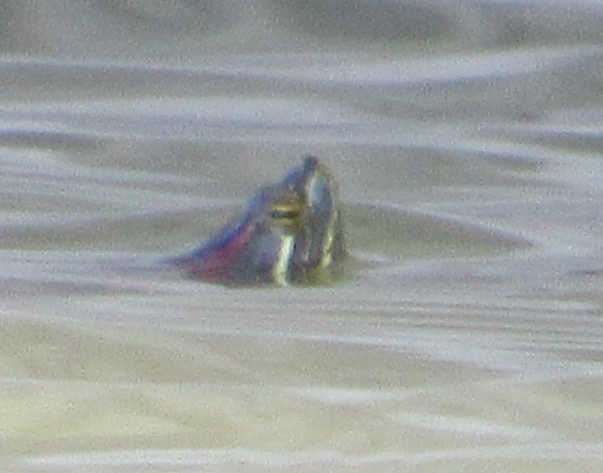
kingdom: Animalia
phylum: Chordata
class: Testudines
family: Emydidae
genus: Trachemys
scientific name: Trachemys scripta
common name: Slider
